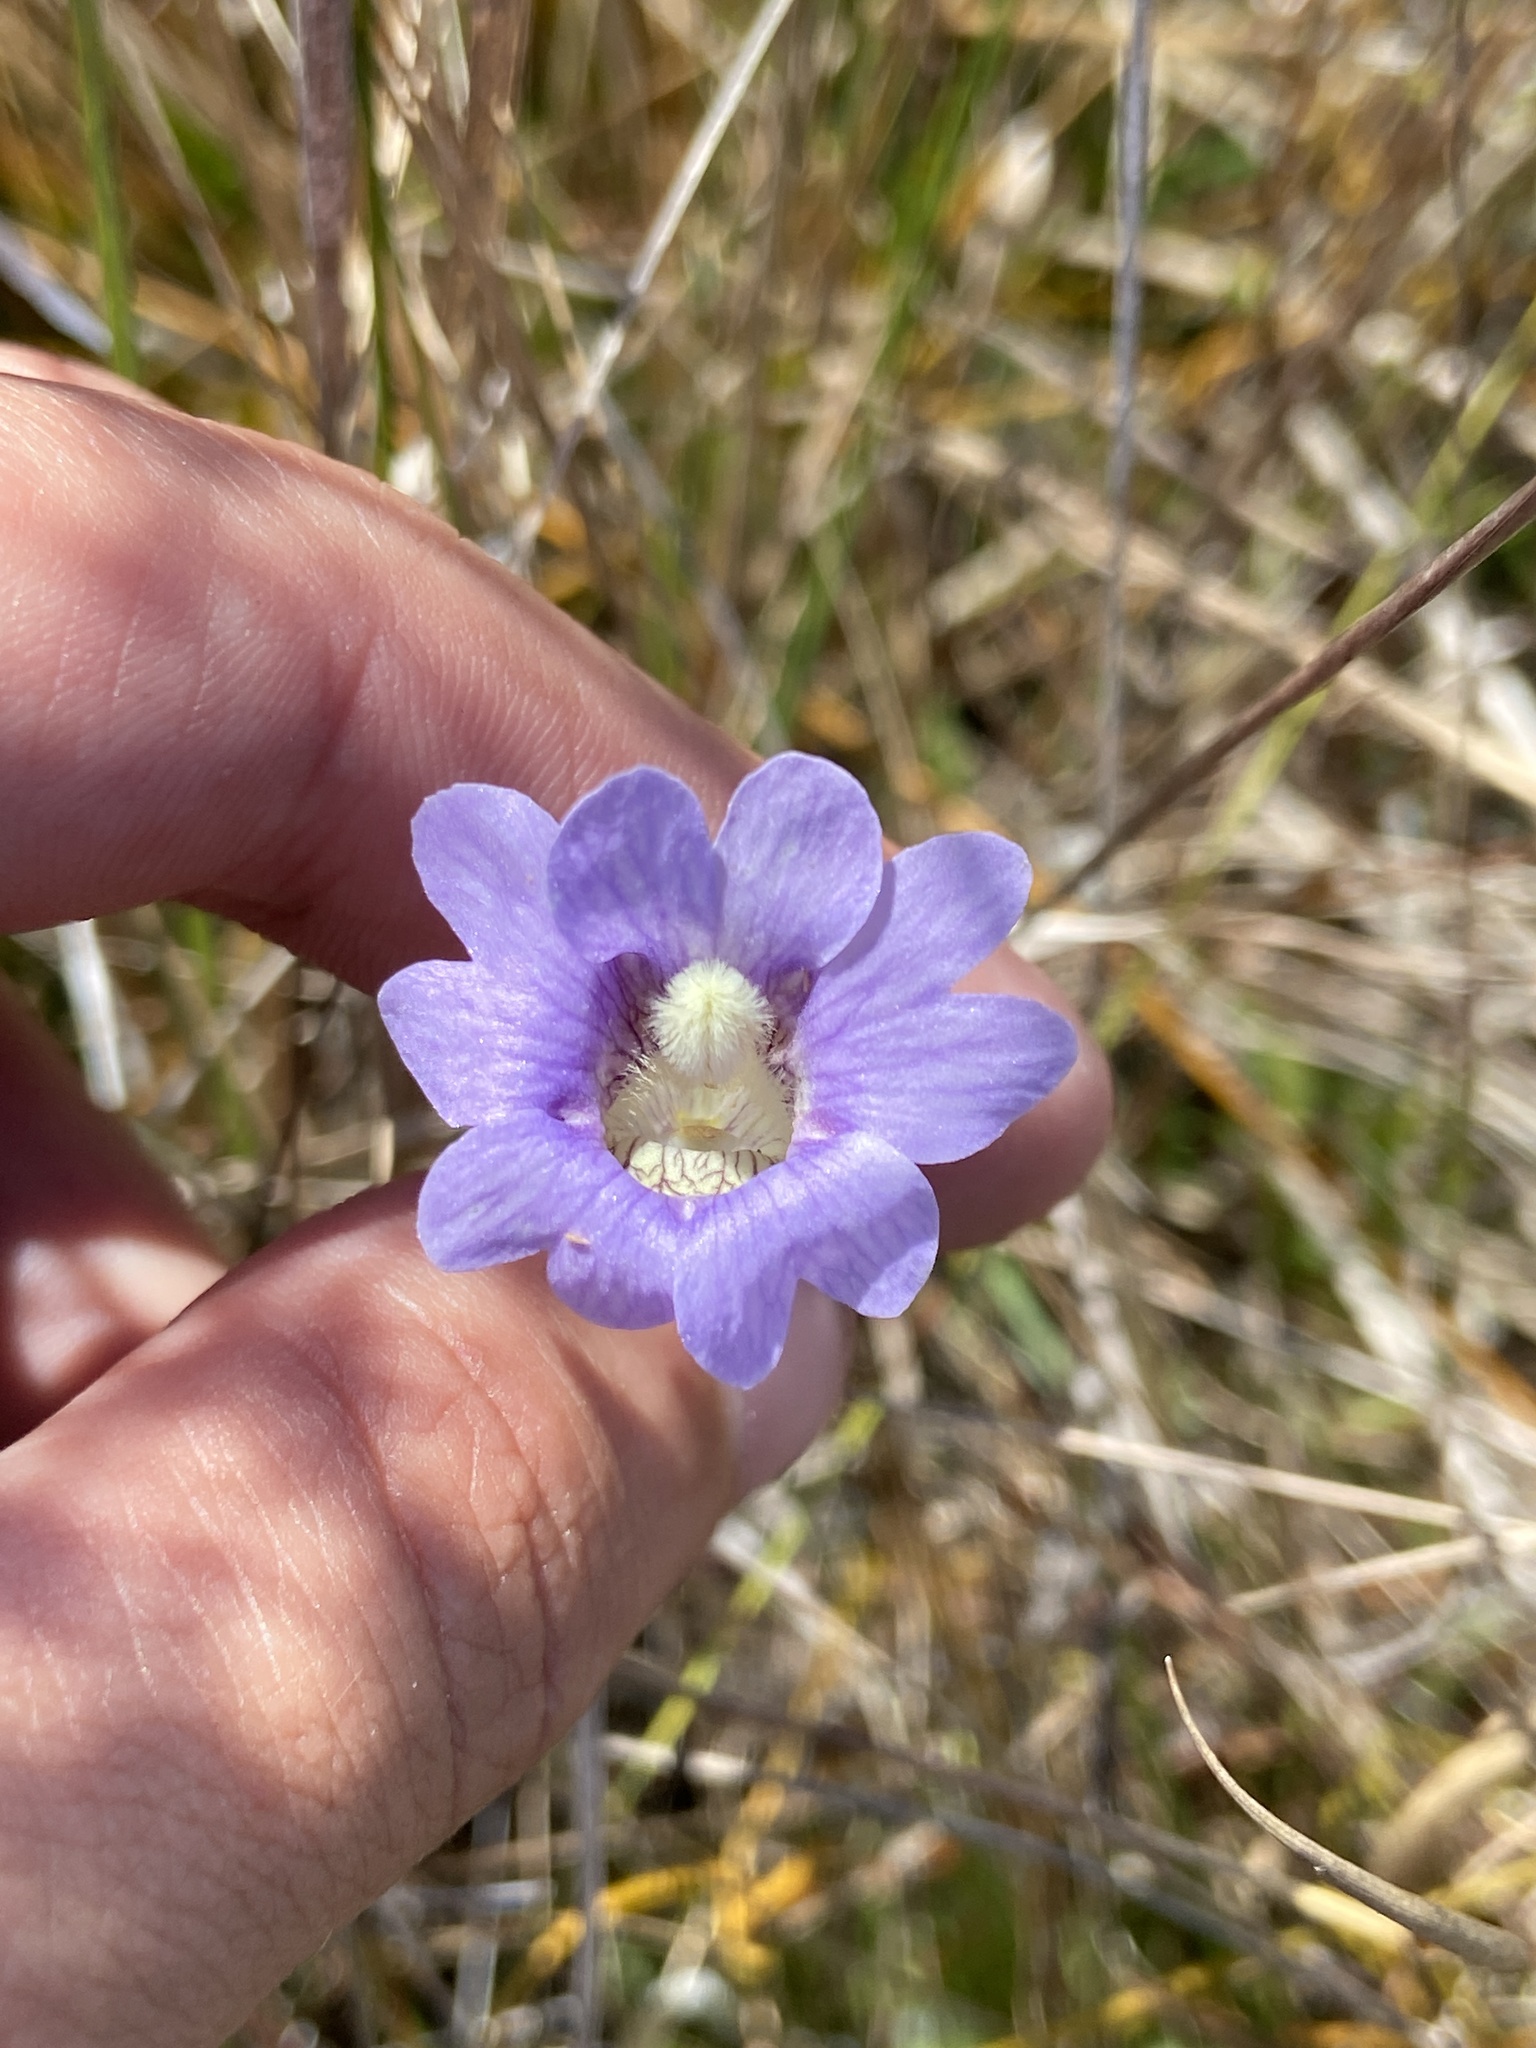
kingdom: Plantae
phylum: Tracheophyta
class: Magnoliopsida
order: Lamiales
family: Lentibulariaceae
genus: Pinguicula
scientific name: Pinguicula caerulea
